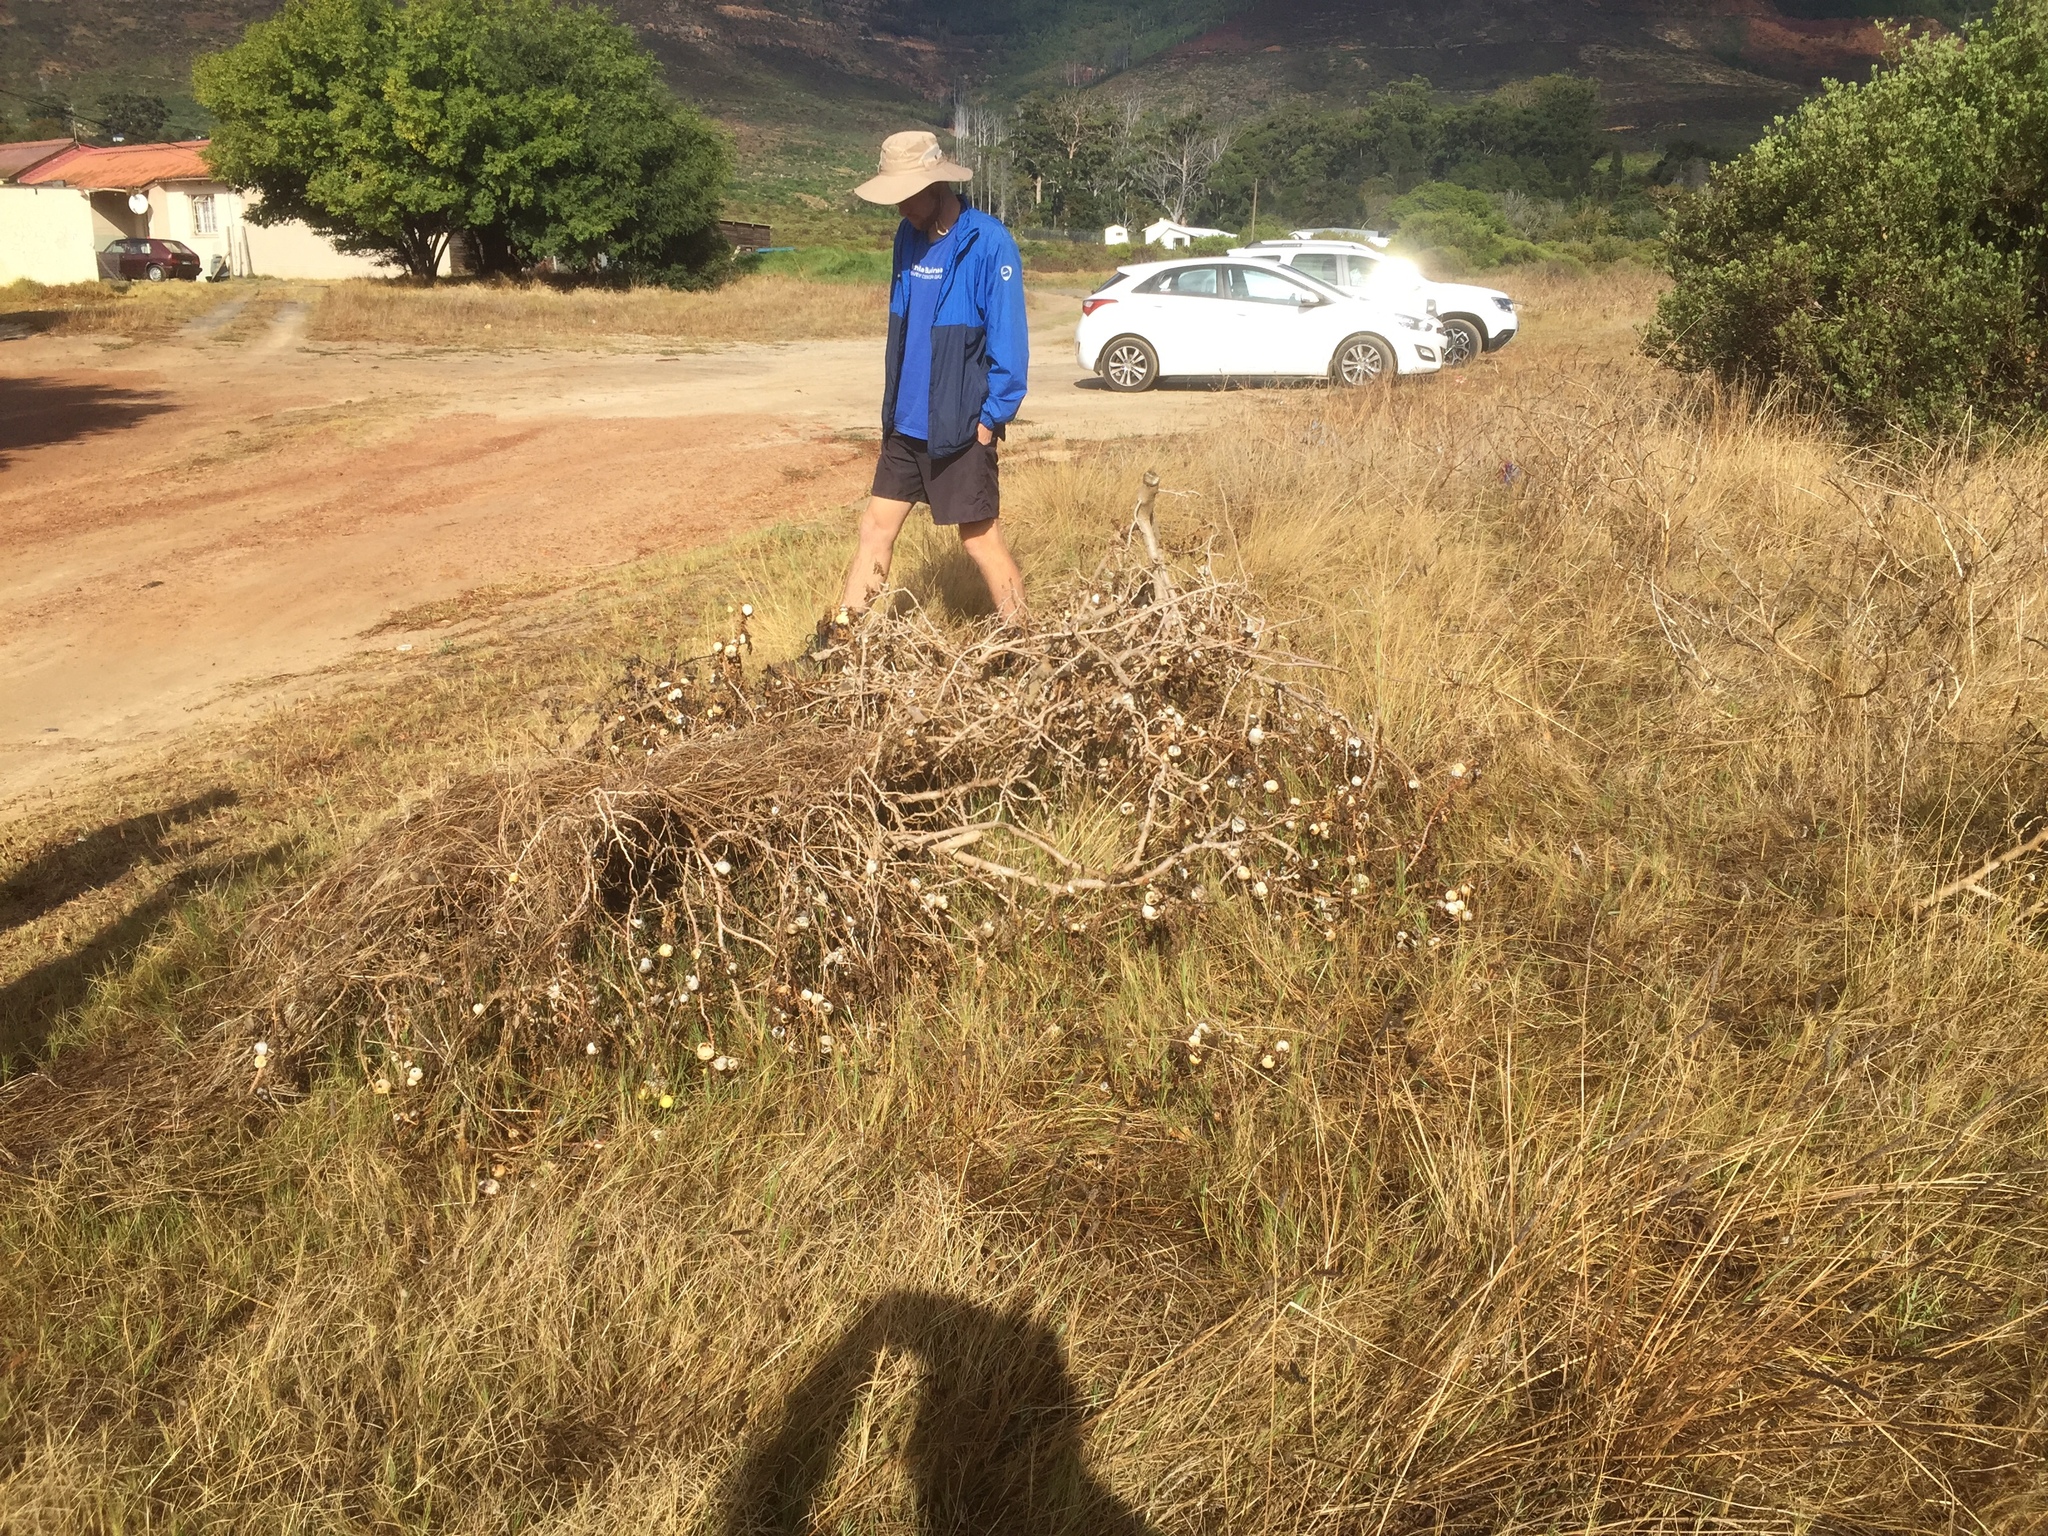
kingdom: Plantae
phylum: Tracheophyta
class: Magnoliopsida
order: Solanales
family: Solanaceae
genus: Solanum
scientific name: Solanum linnaeanum
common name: Nightshade
